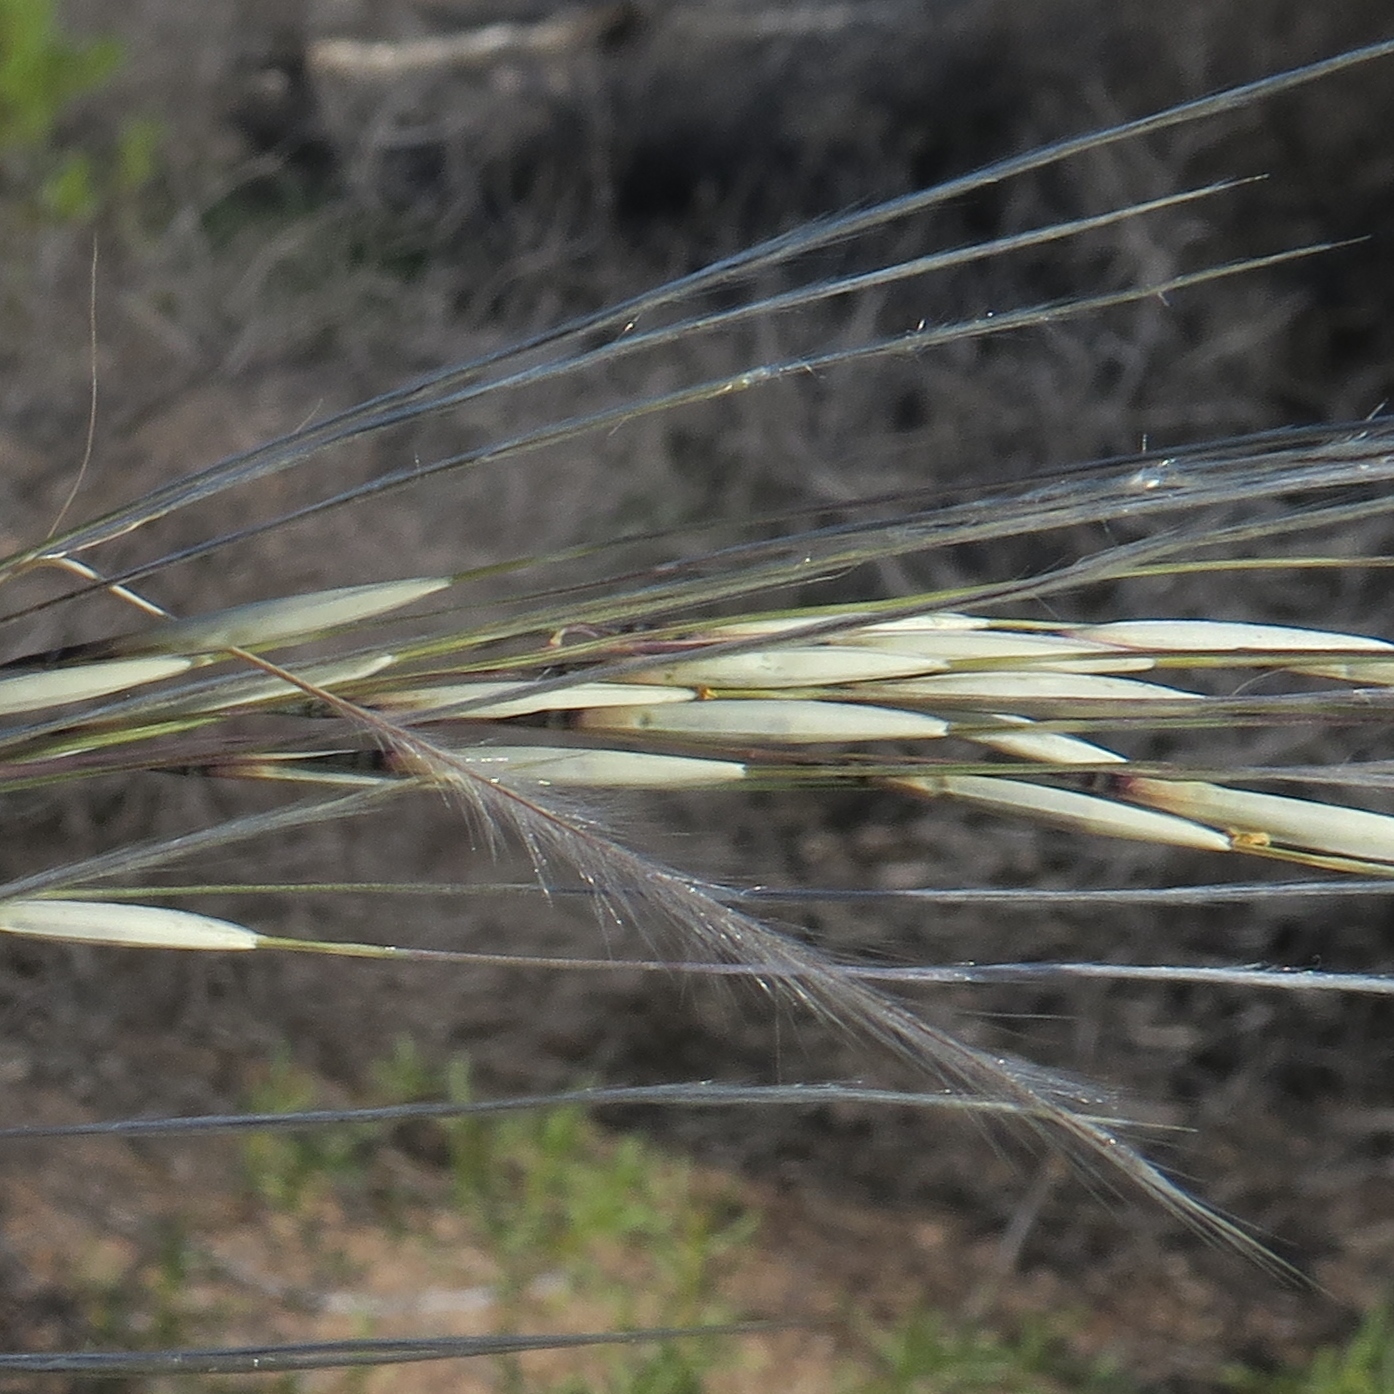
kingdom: Plantae
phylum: Tracheophyta
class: Liliopsida
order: Poales
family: Poaceae
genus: Stipagrostis
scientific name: Stipagrostis ciliata
